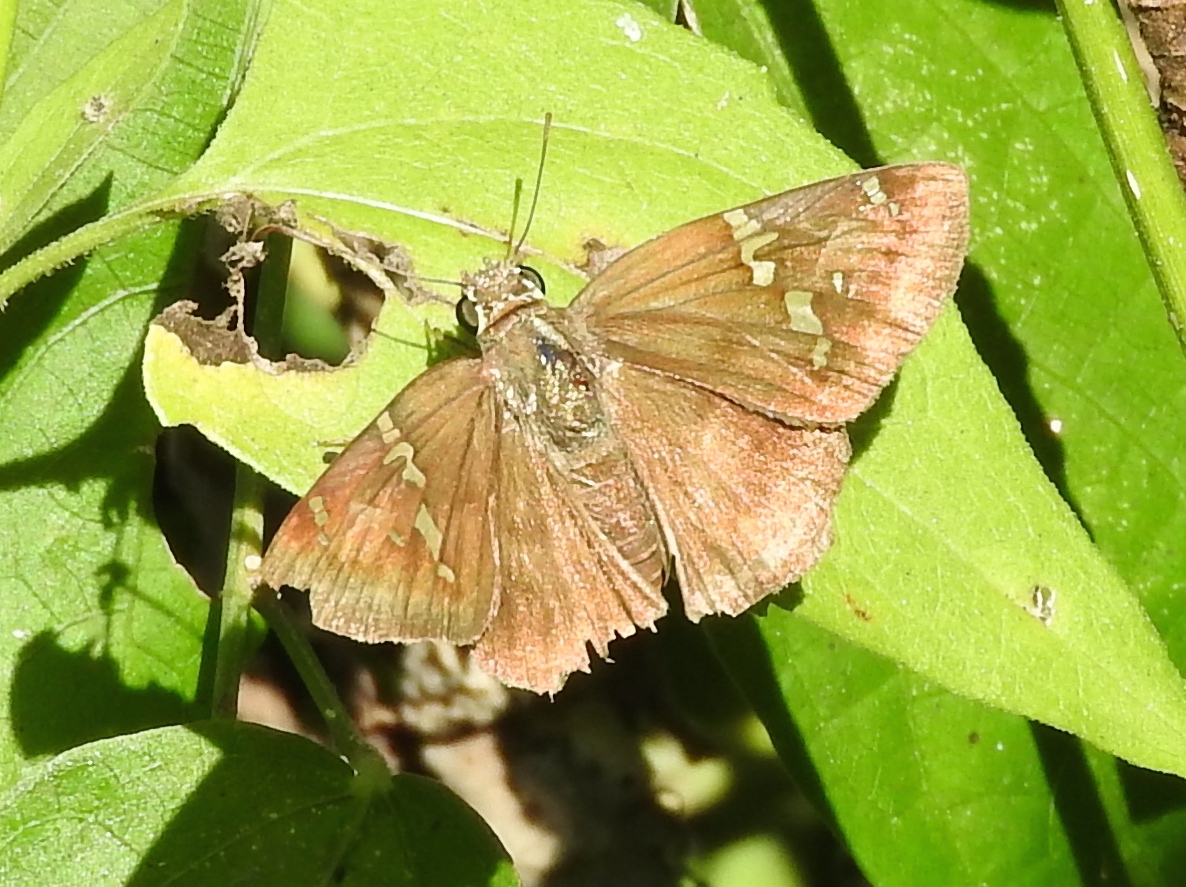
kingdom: Animalia
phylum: Arthropoda
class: Insecta
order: Lepidoptera
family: Hesperiidae
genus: Autochton
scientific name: Autochton potrillo
